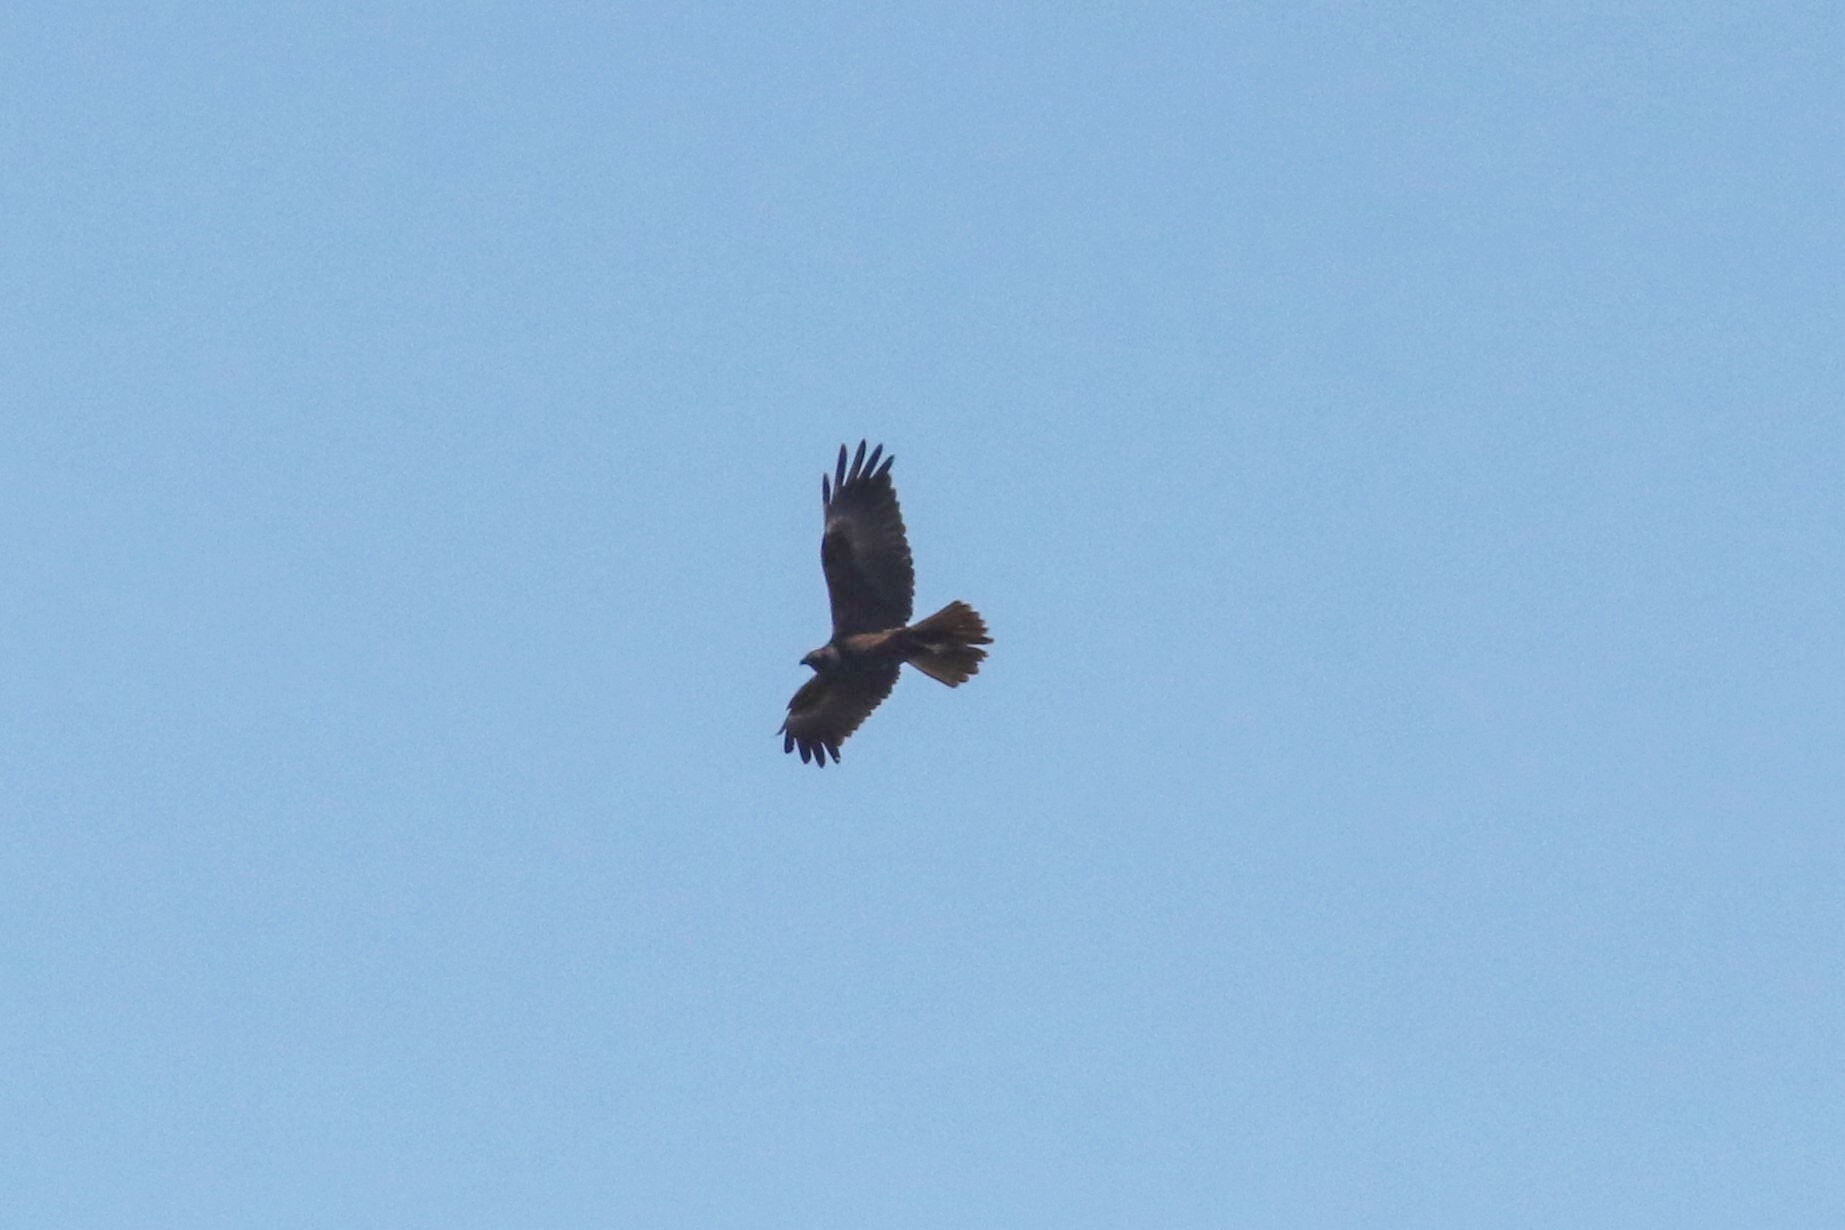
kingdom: Animalia
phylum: Chordata
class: Aves
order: Accipitriformes
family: Accipitridae
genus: Circus
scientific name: Circus aeruginosus
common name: Western marsh harrier
